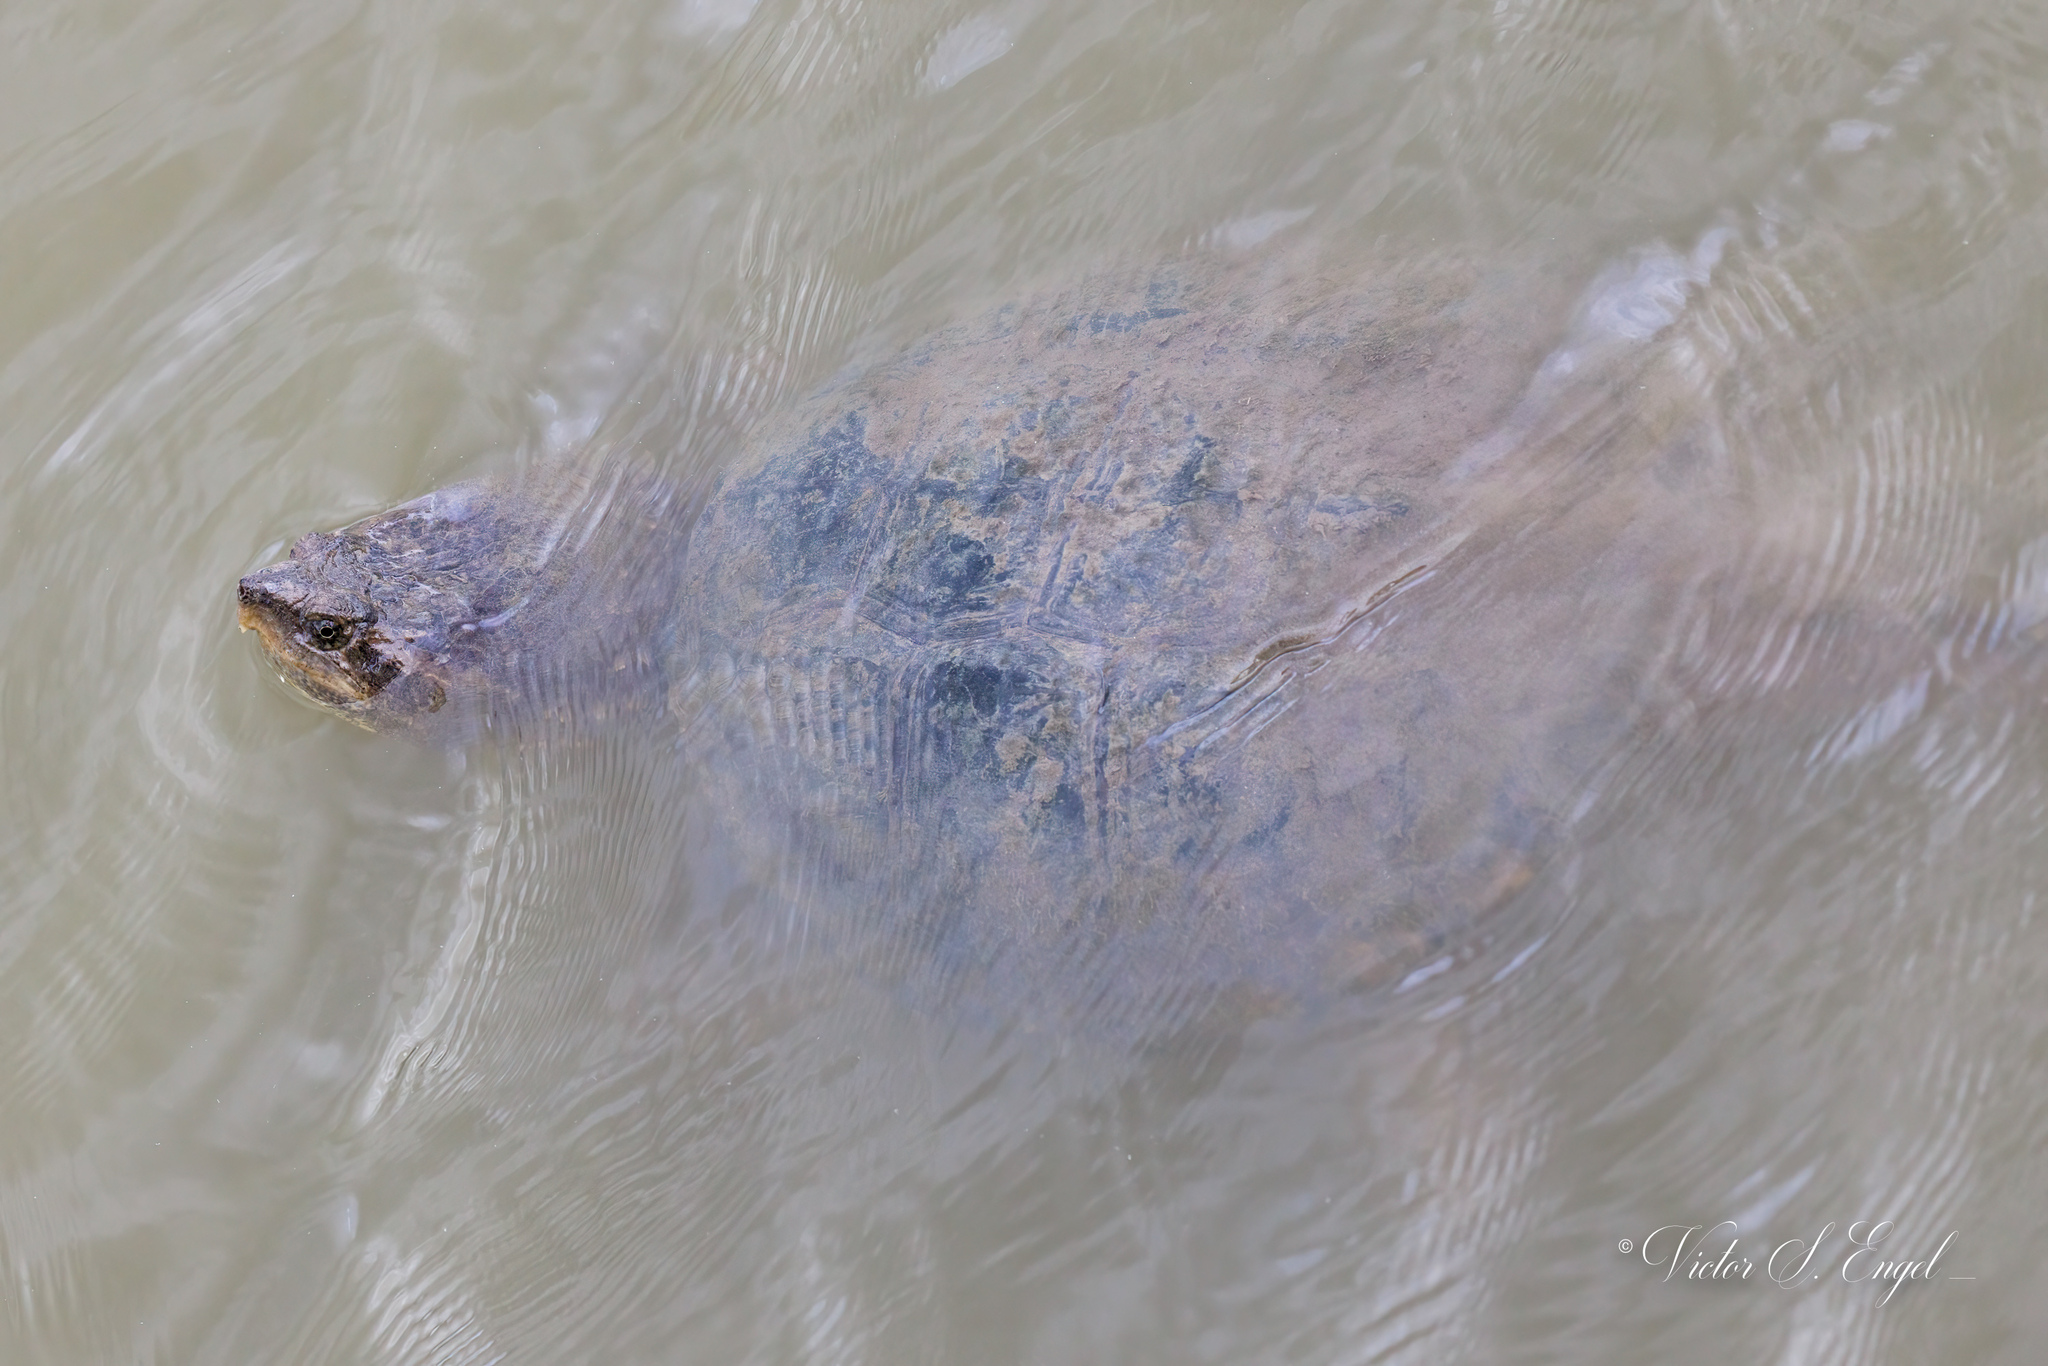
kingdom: Animalia
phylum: Chordata
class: Testudines
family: Chelydridae
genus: Chelydra
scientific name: Chelydra serpentina
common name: Common snapping turtle
